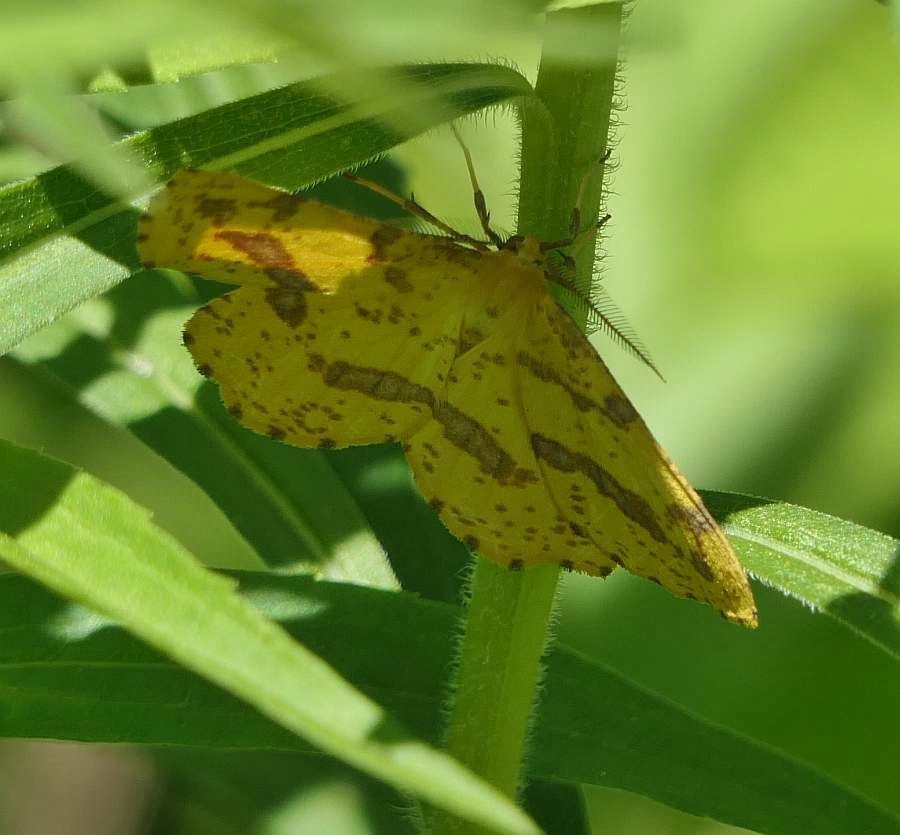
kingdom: Animalia
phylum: Arthropoda
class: Insecta
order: Lepidoptera
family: Geometridae
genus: Xanthotype
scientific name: Xanthotype
